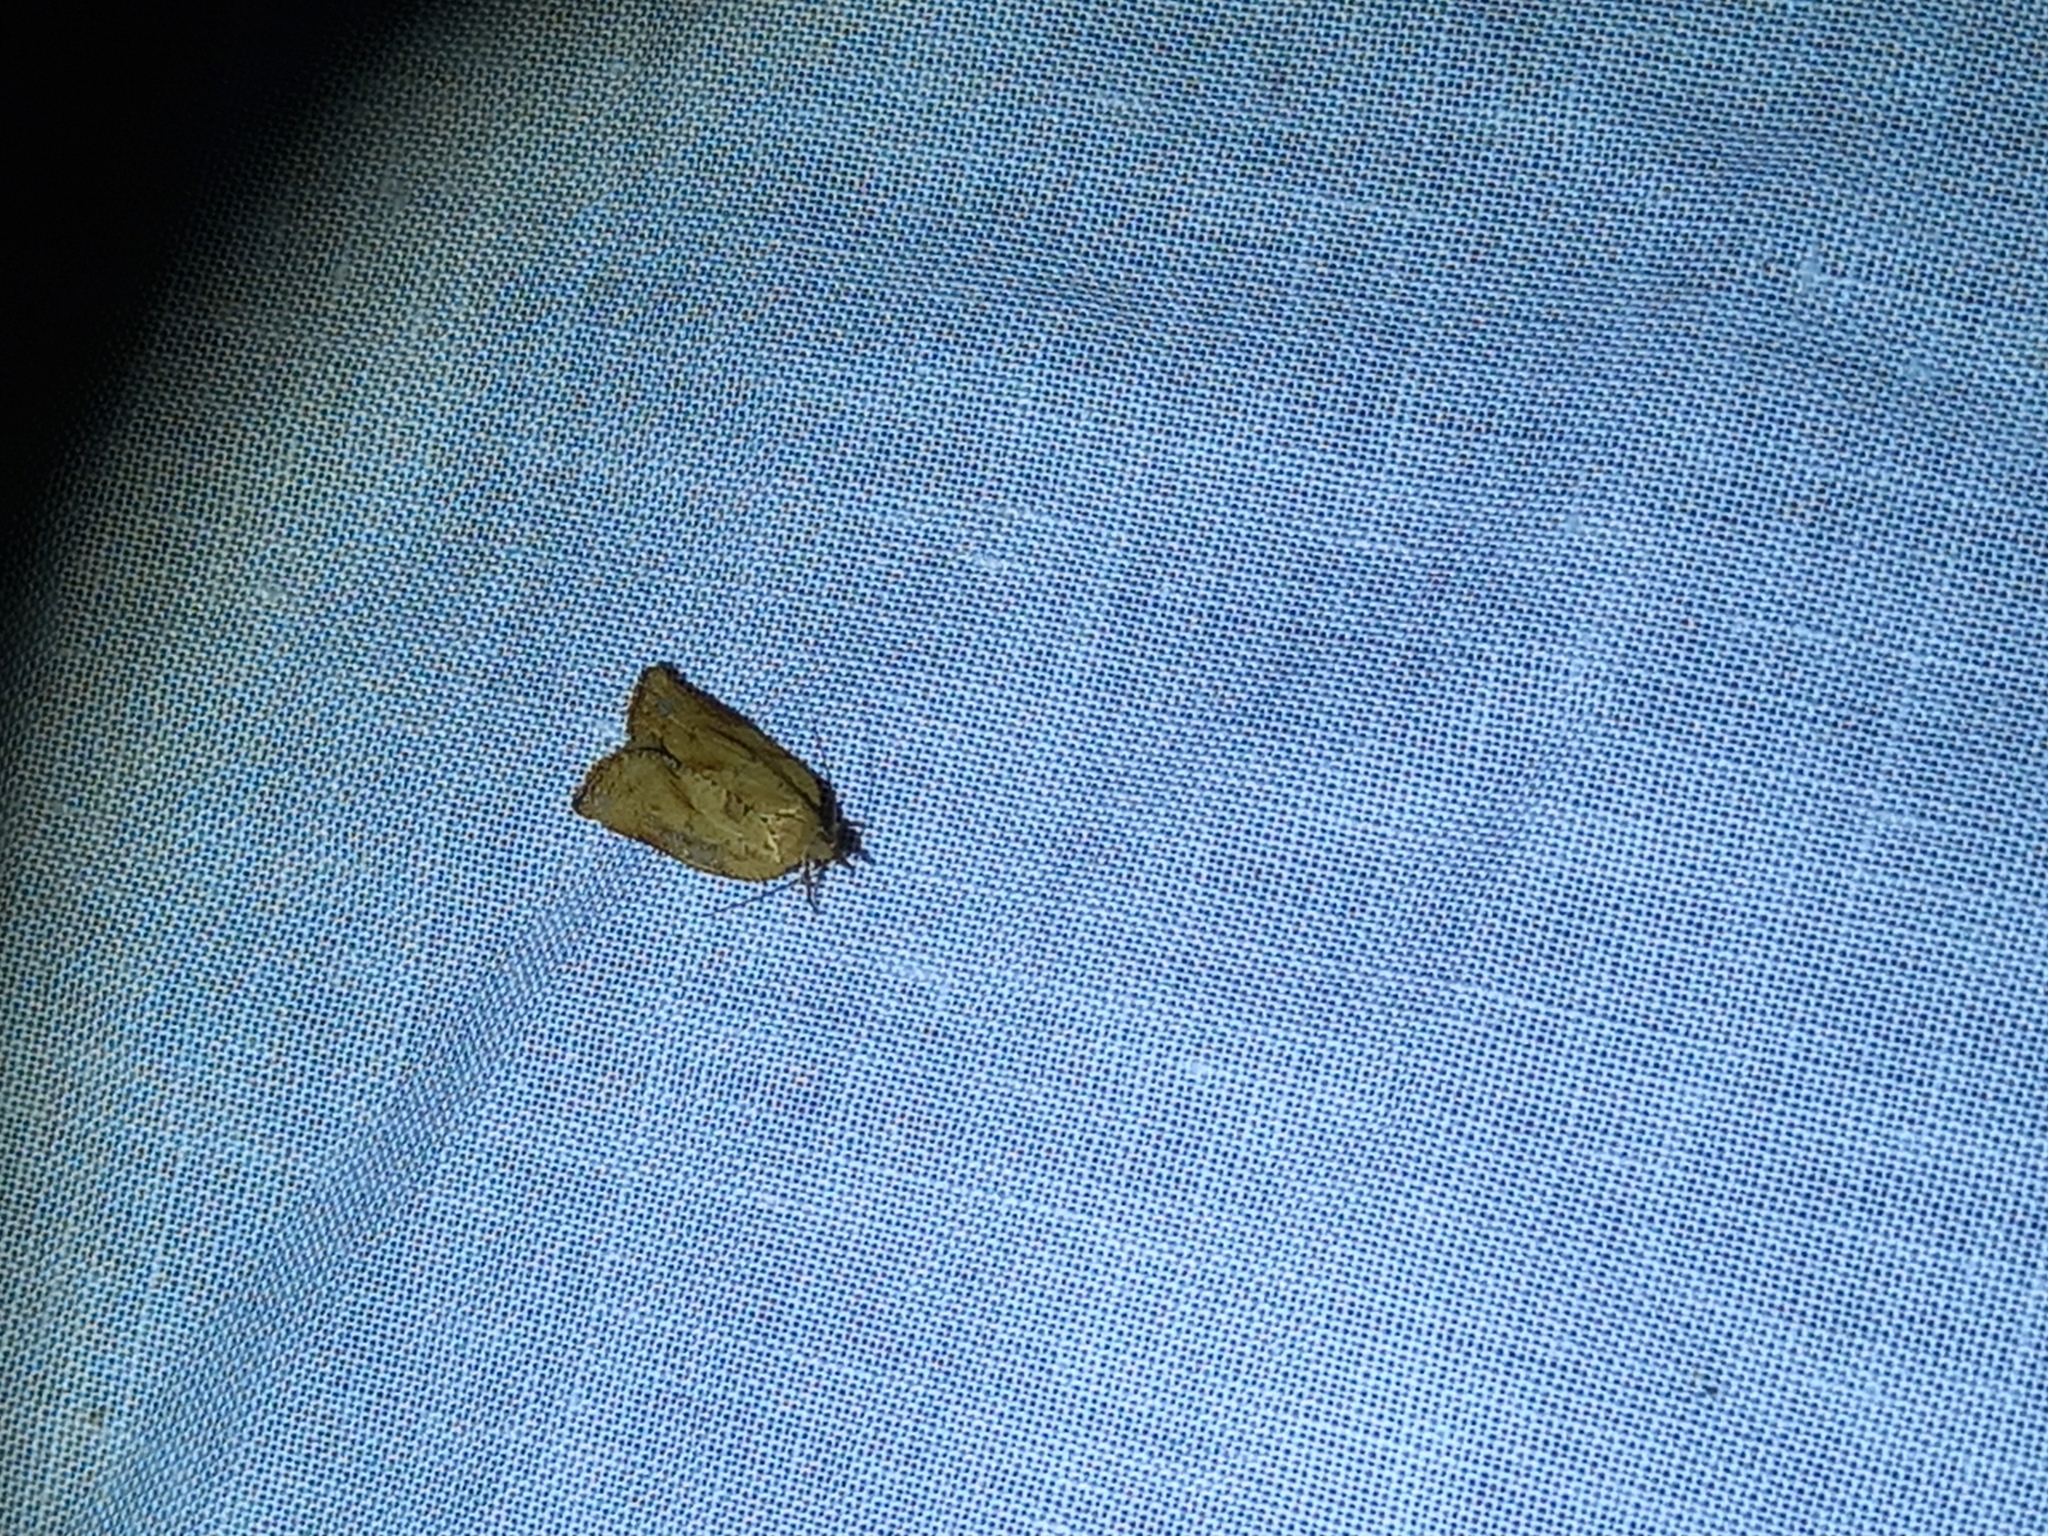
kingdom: Animalia
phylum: Arthropoda
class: Insecta
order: Lepidoptera
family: Tortricidae
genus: Epiphyas
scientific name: Epiphyas postvittana
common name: Light brown apple moth
